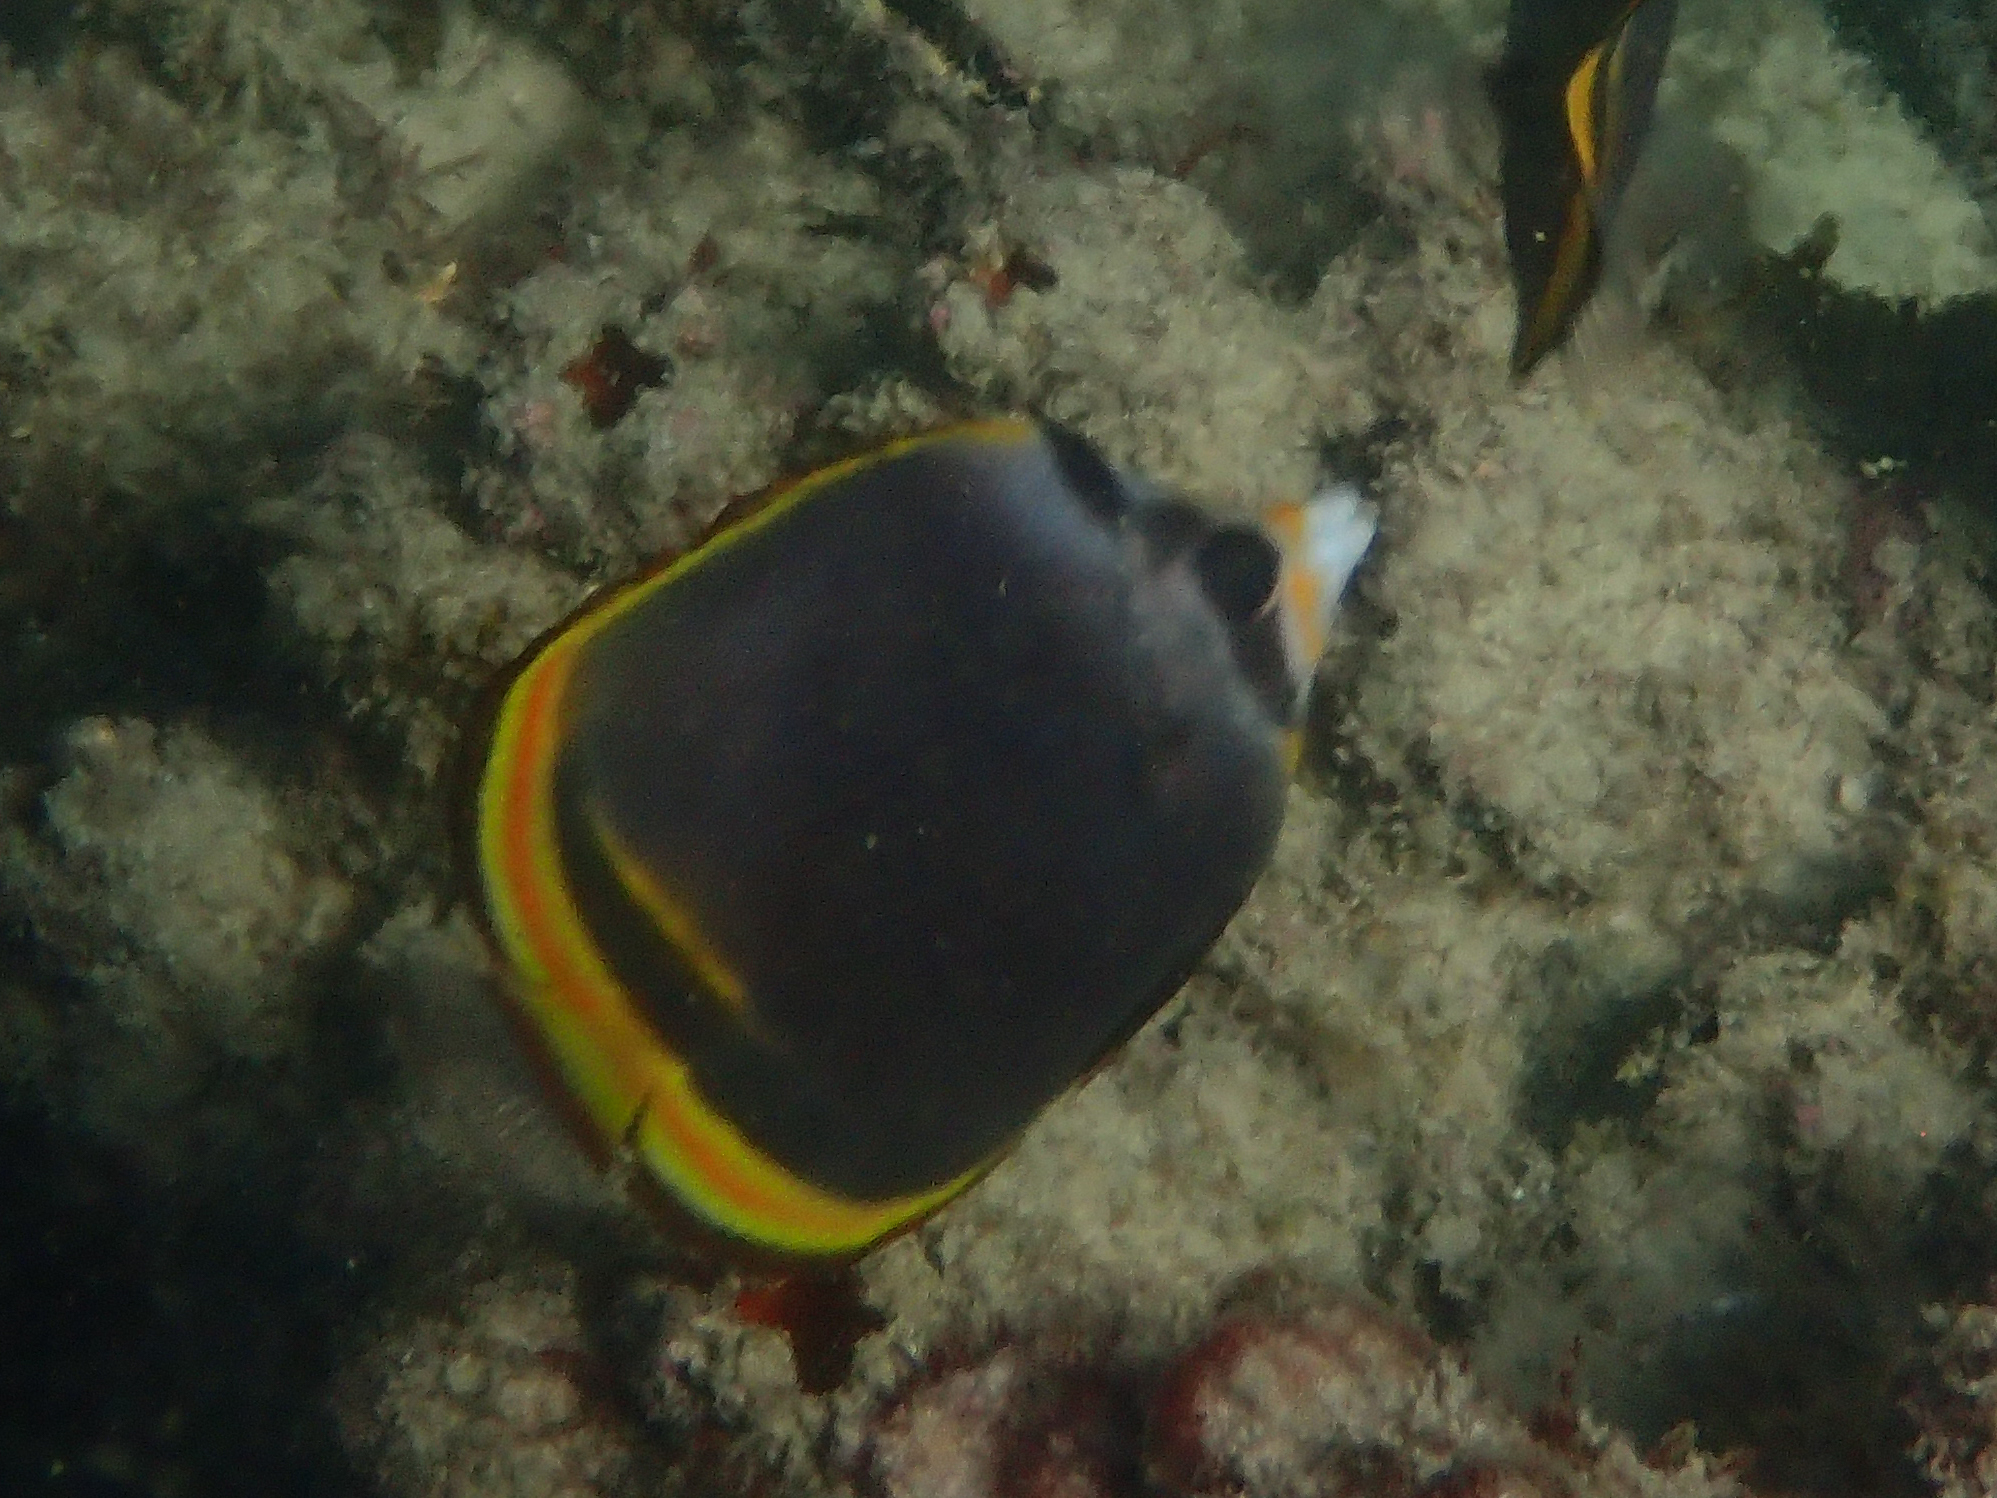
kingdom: Animalia
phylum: Chordata
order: Perciformes
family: Chaetodontidae
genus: Chaetodon
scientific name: Chaetodon flavirostris
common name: Black butterflyfish
